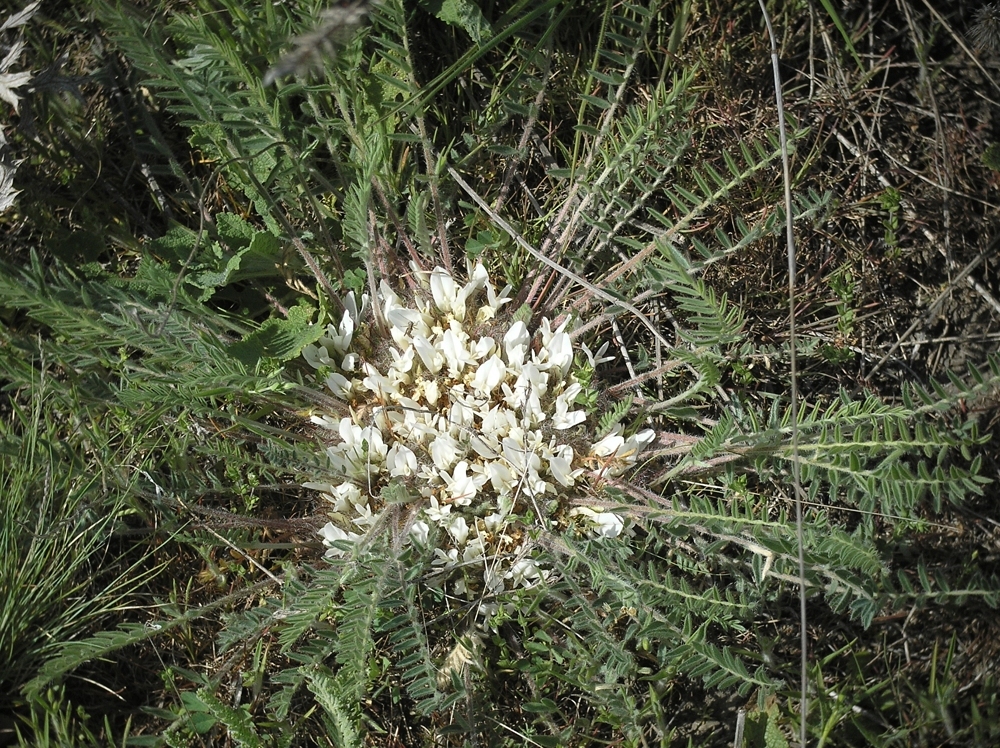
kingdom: Plantae
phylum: Tracheophyta
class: Magnoliopsida
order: Fabales
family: Fabaceae
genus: Astragalus
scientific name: Astragalus dolichophyllus
